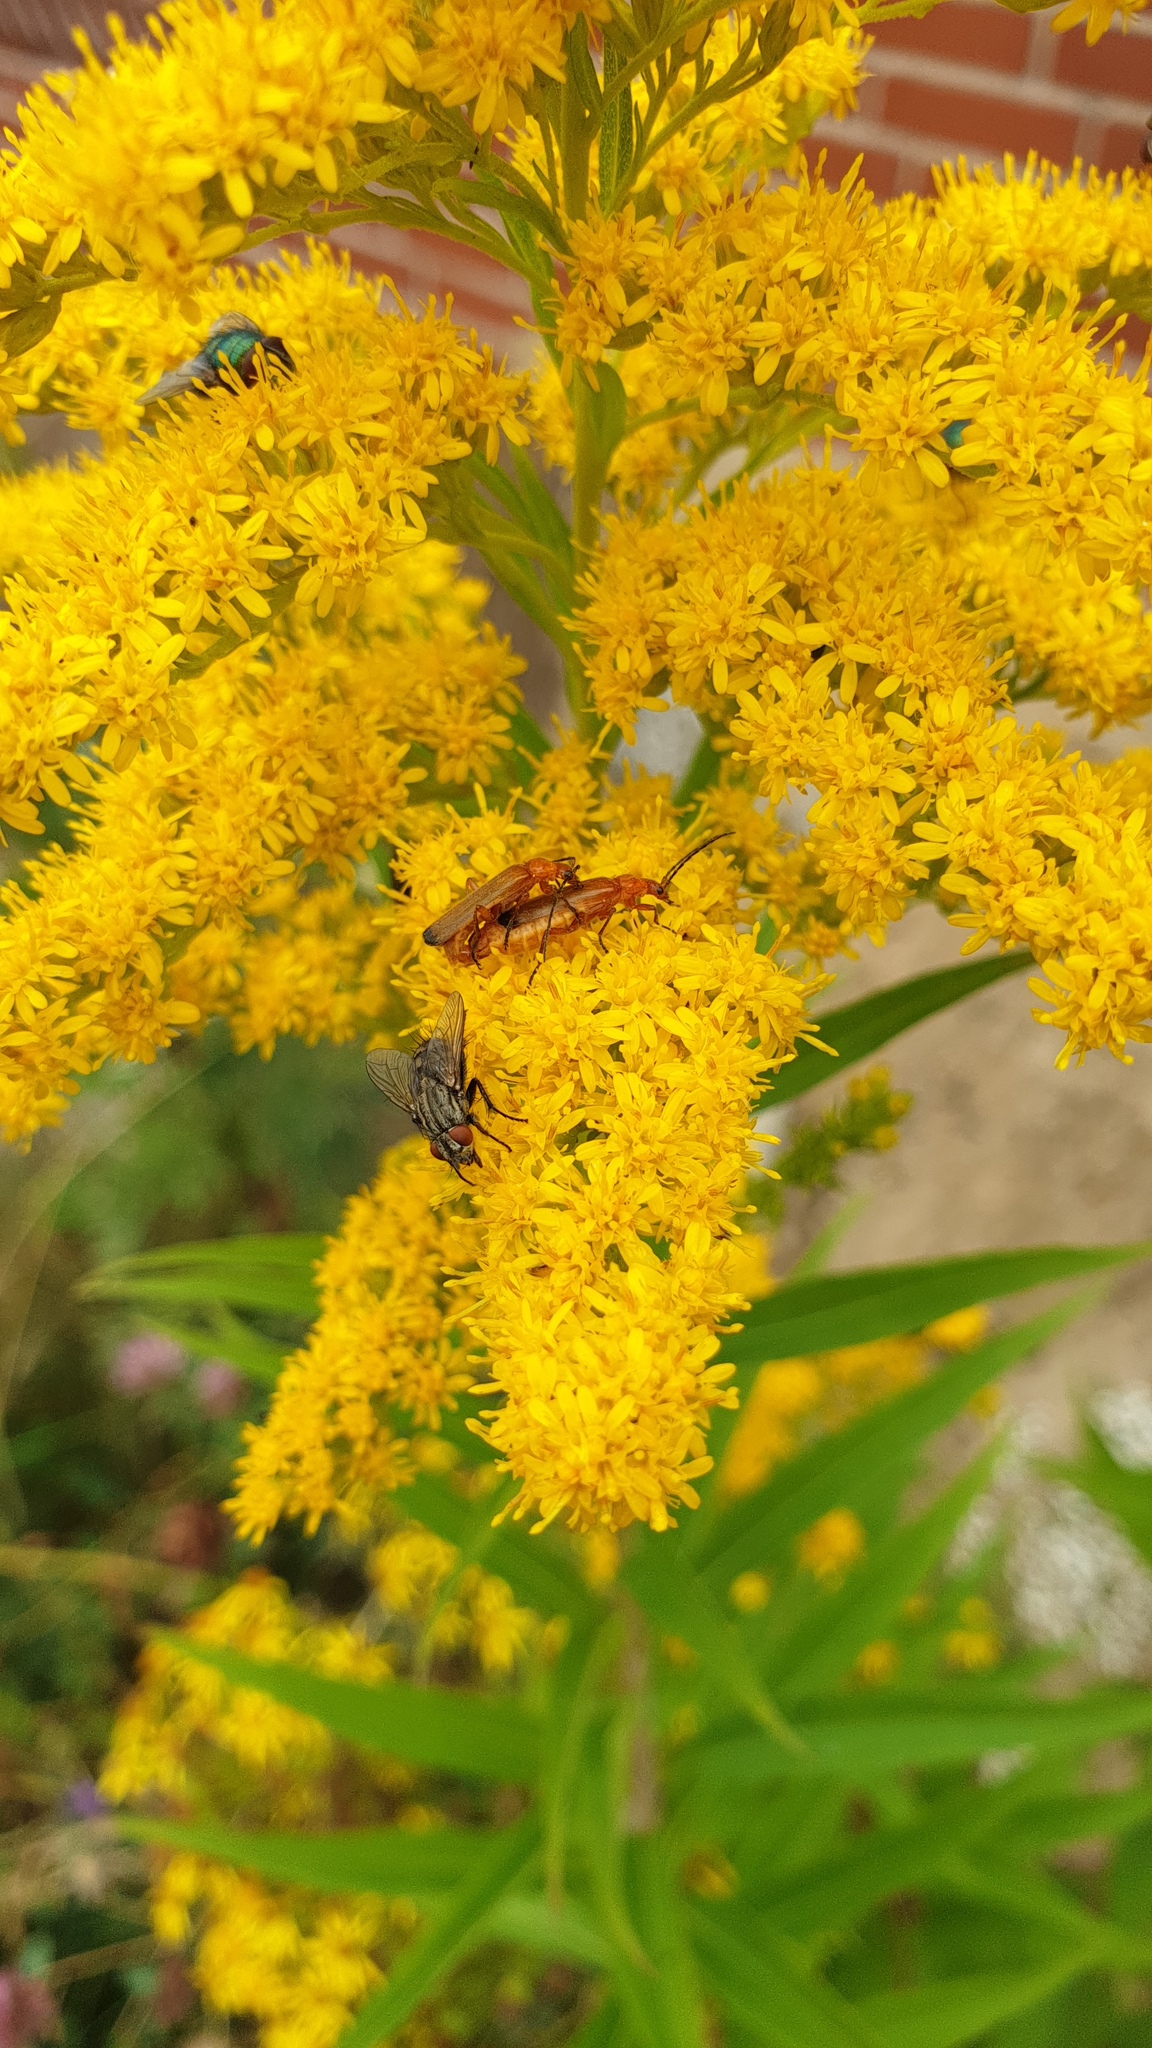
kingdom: Animalia
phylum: Arthropoda
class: Insecta
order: Coleoptera
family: Cantharidae
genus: Rhagonycha
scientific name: Rhagonycha fulva
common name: Common red soldier beetle
